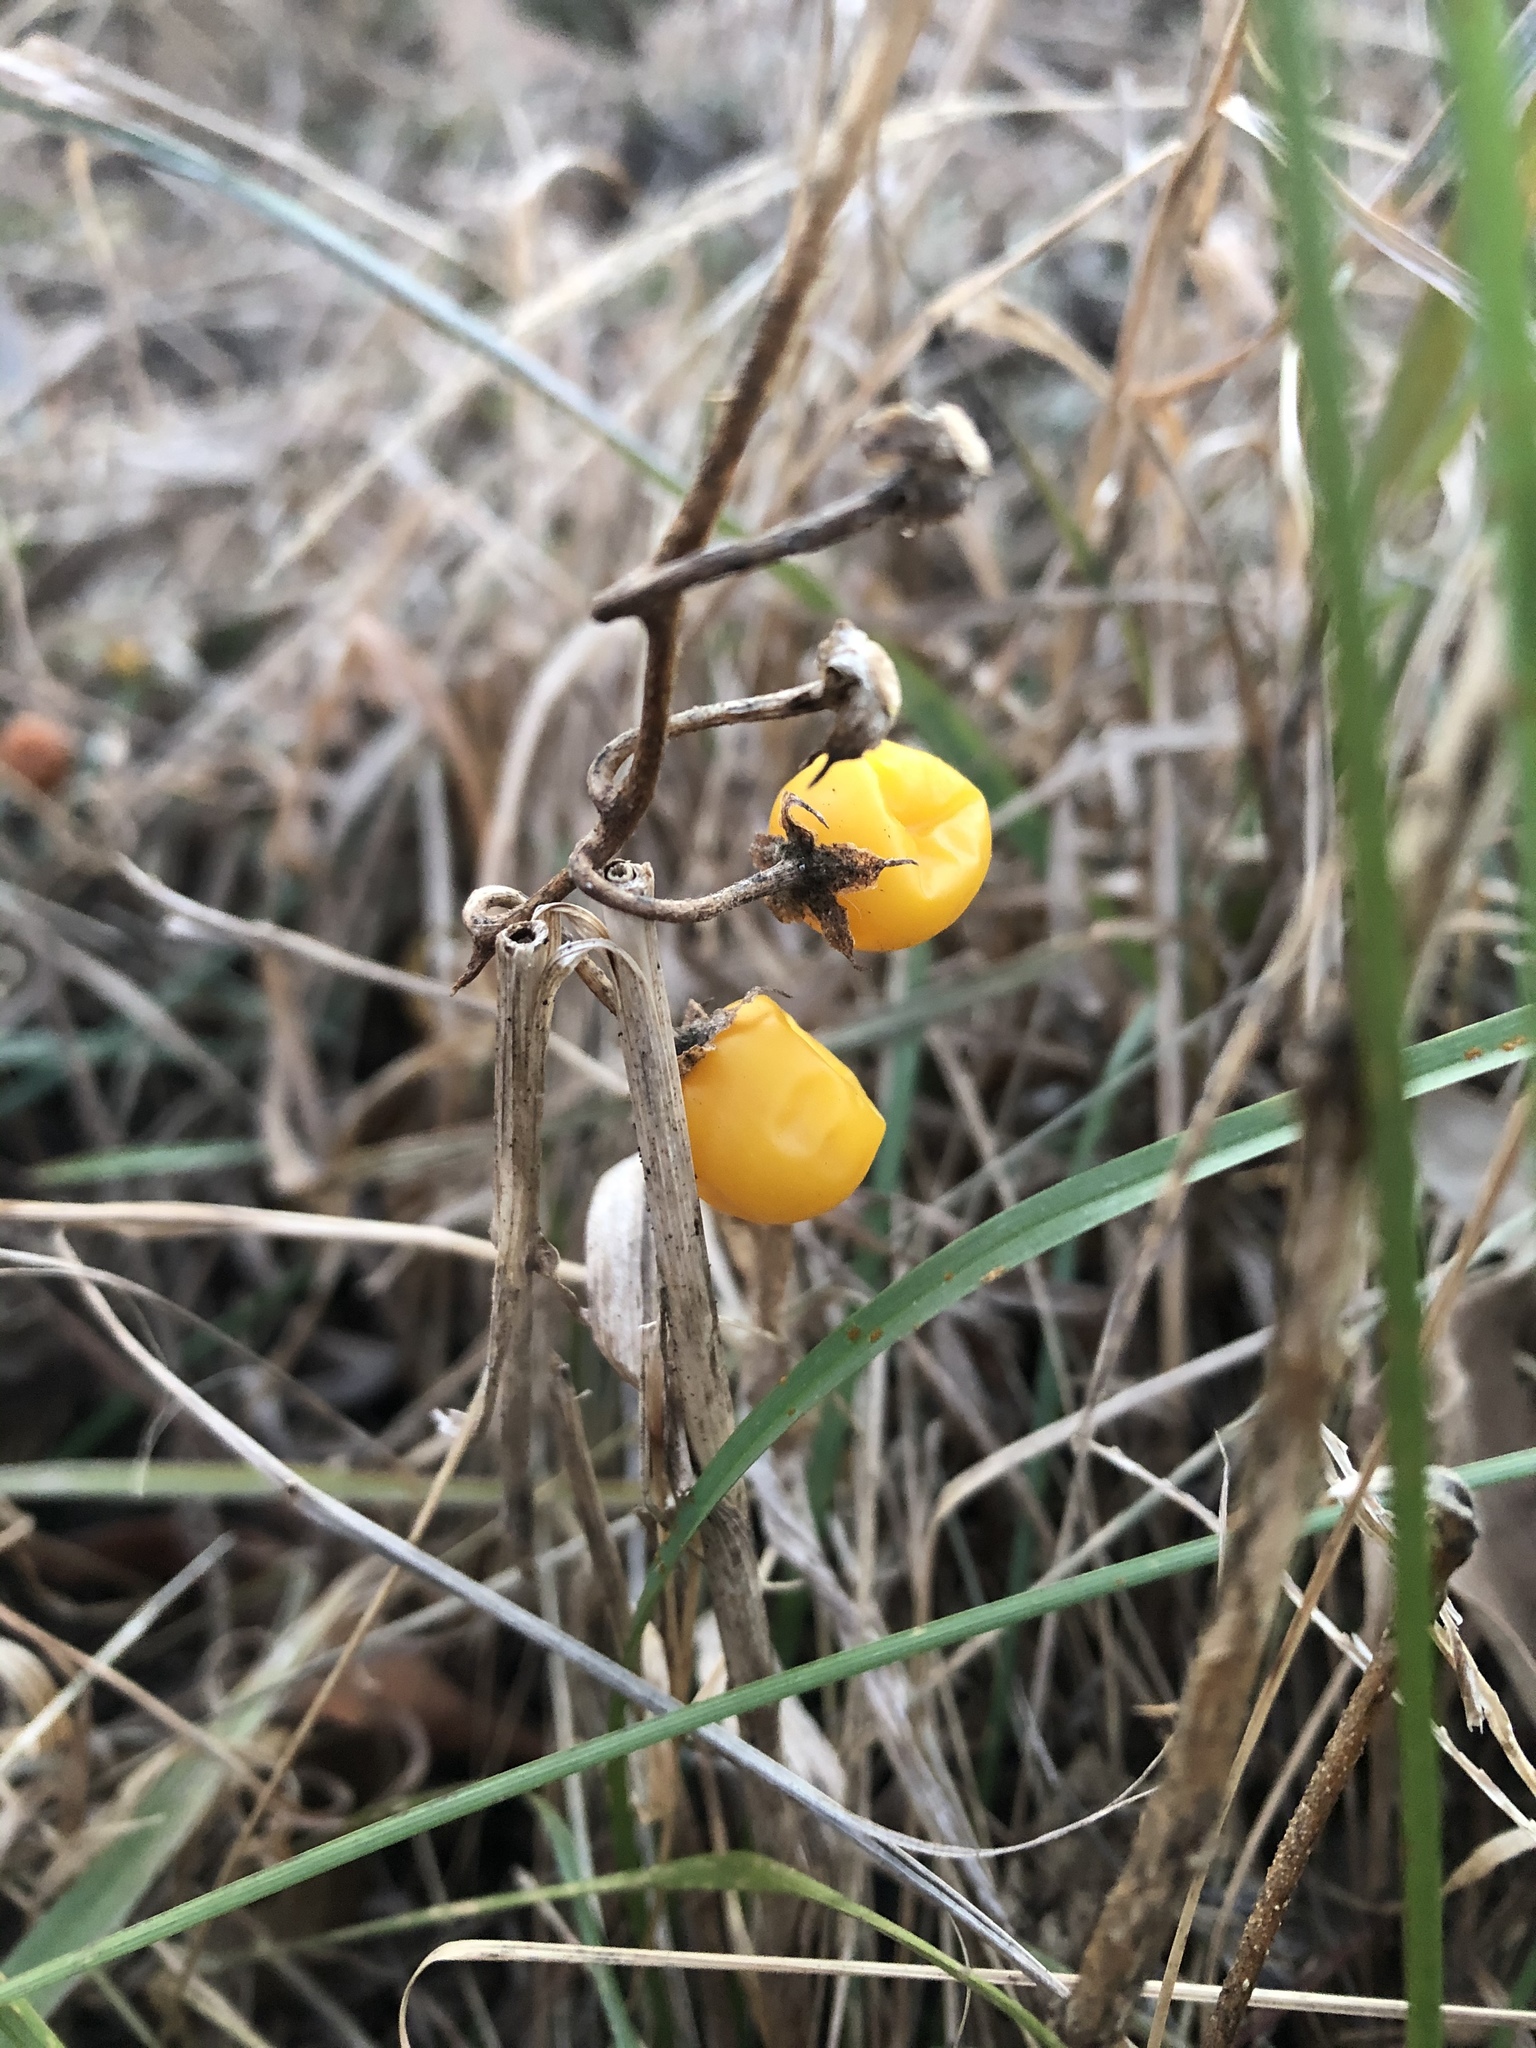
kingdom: Plantae
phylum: Tracheophyta
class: Magnoliopsida
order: Solanales
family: Solanaceae
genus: Solanum
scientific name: Solanum carolinense
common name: Horse-nettle
